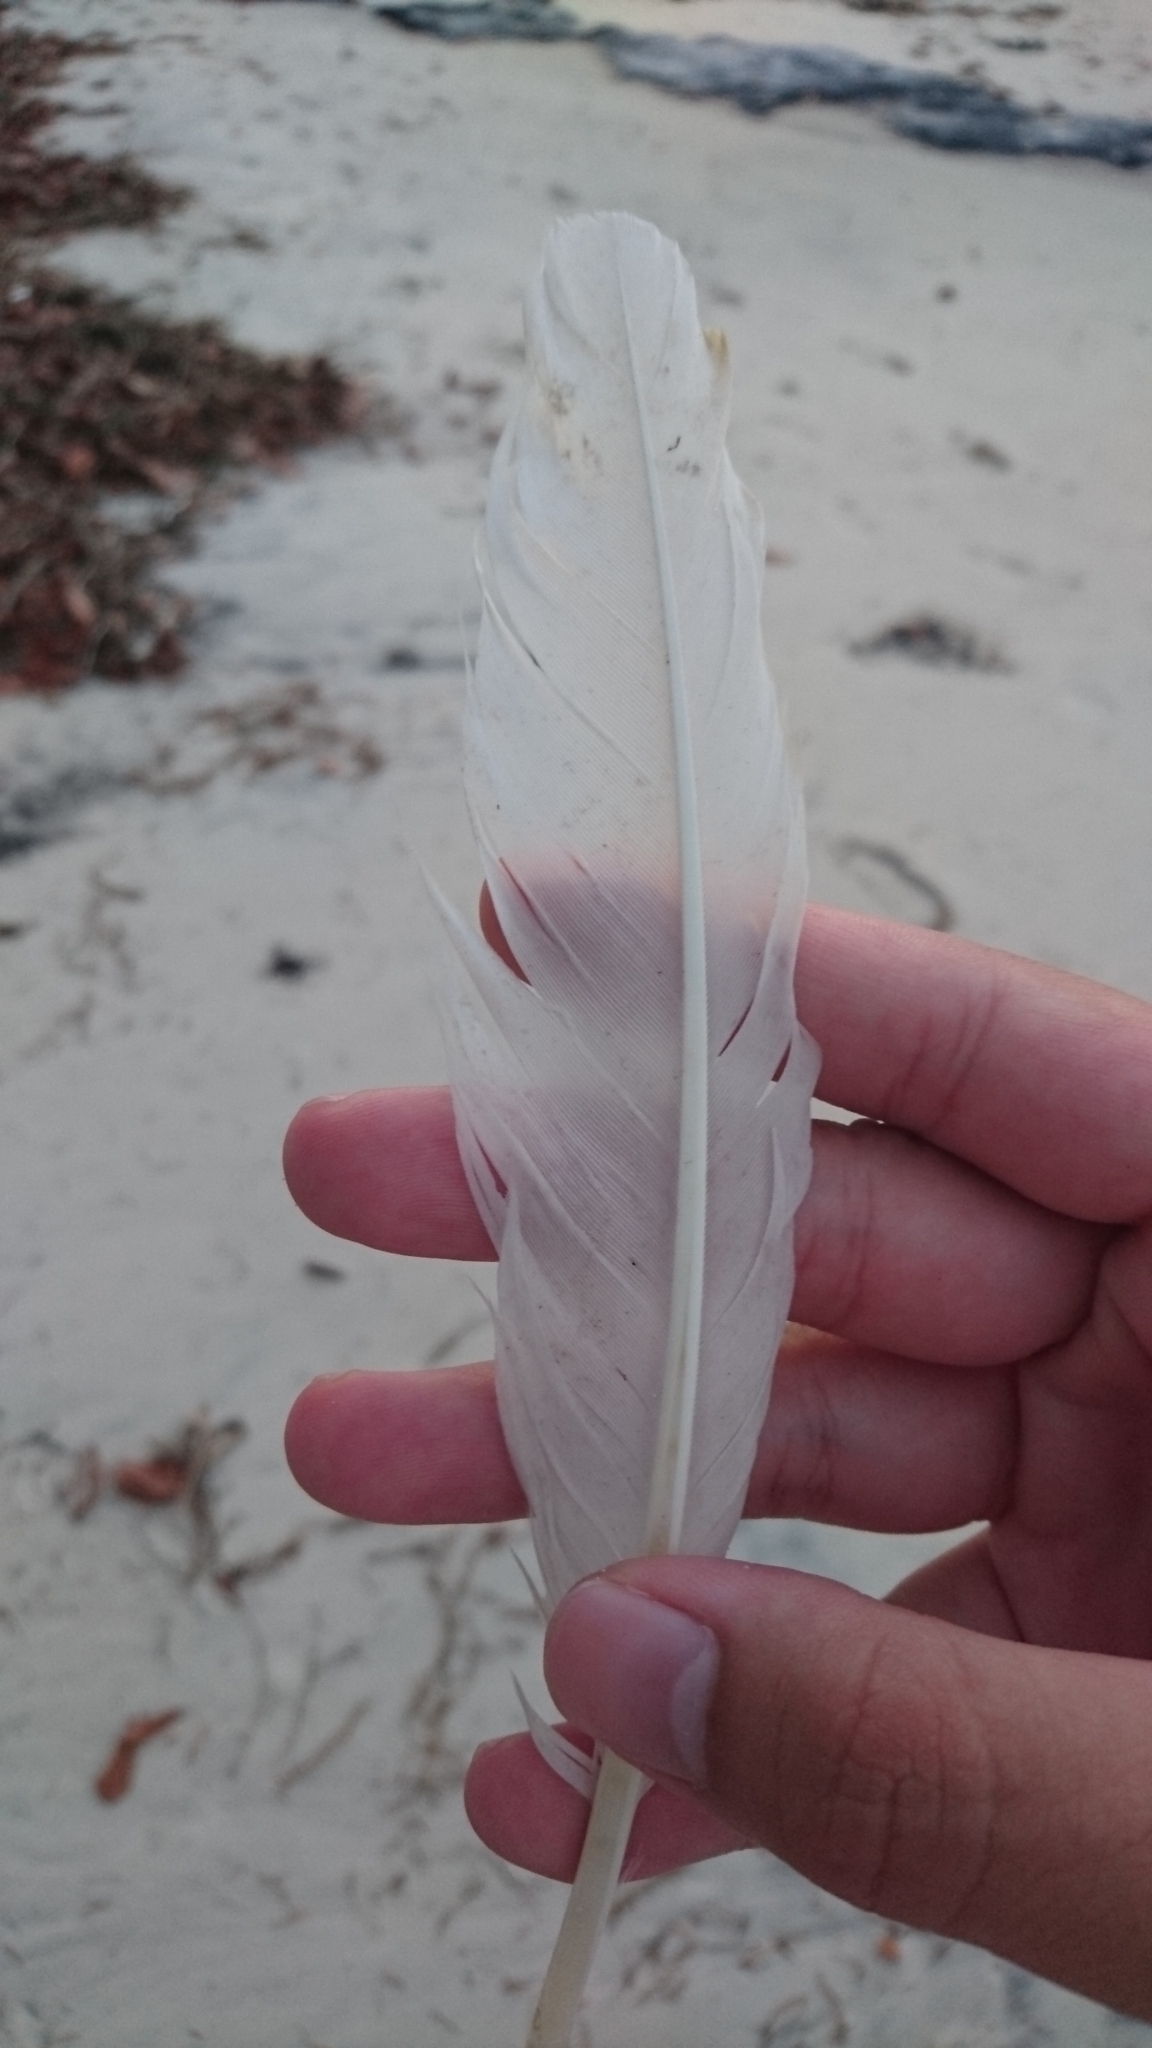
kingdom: Animalia
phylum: Chordata
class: Aves
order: Pelecaniformes
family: Threskiornithidae
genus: Threskiornis
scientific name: Threskiornis molucca
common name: Australian white ibis
